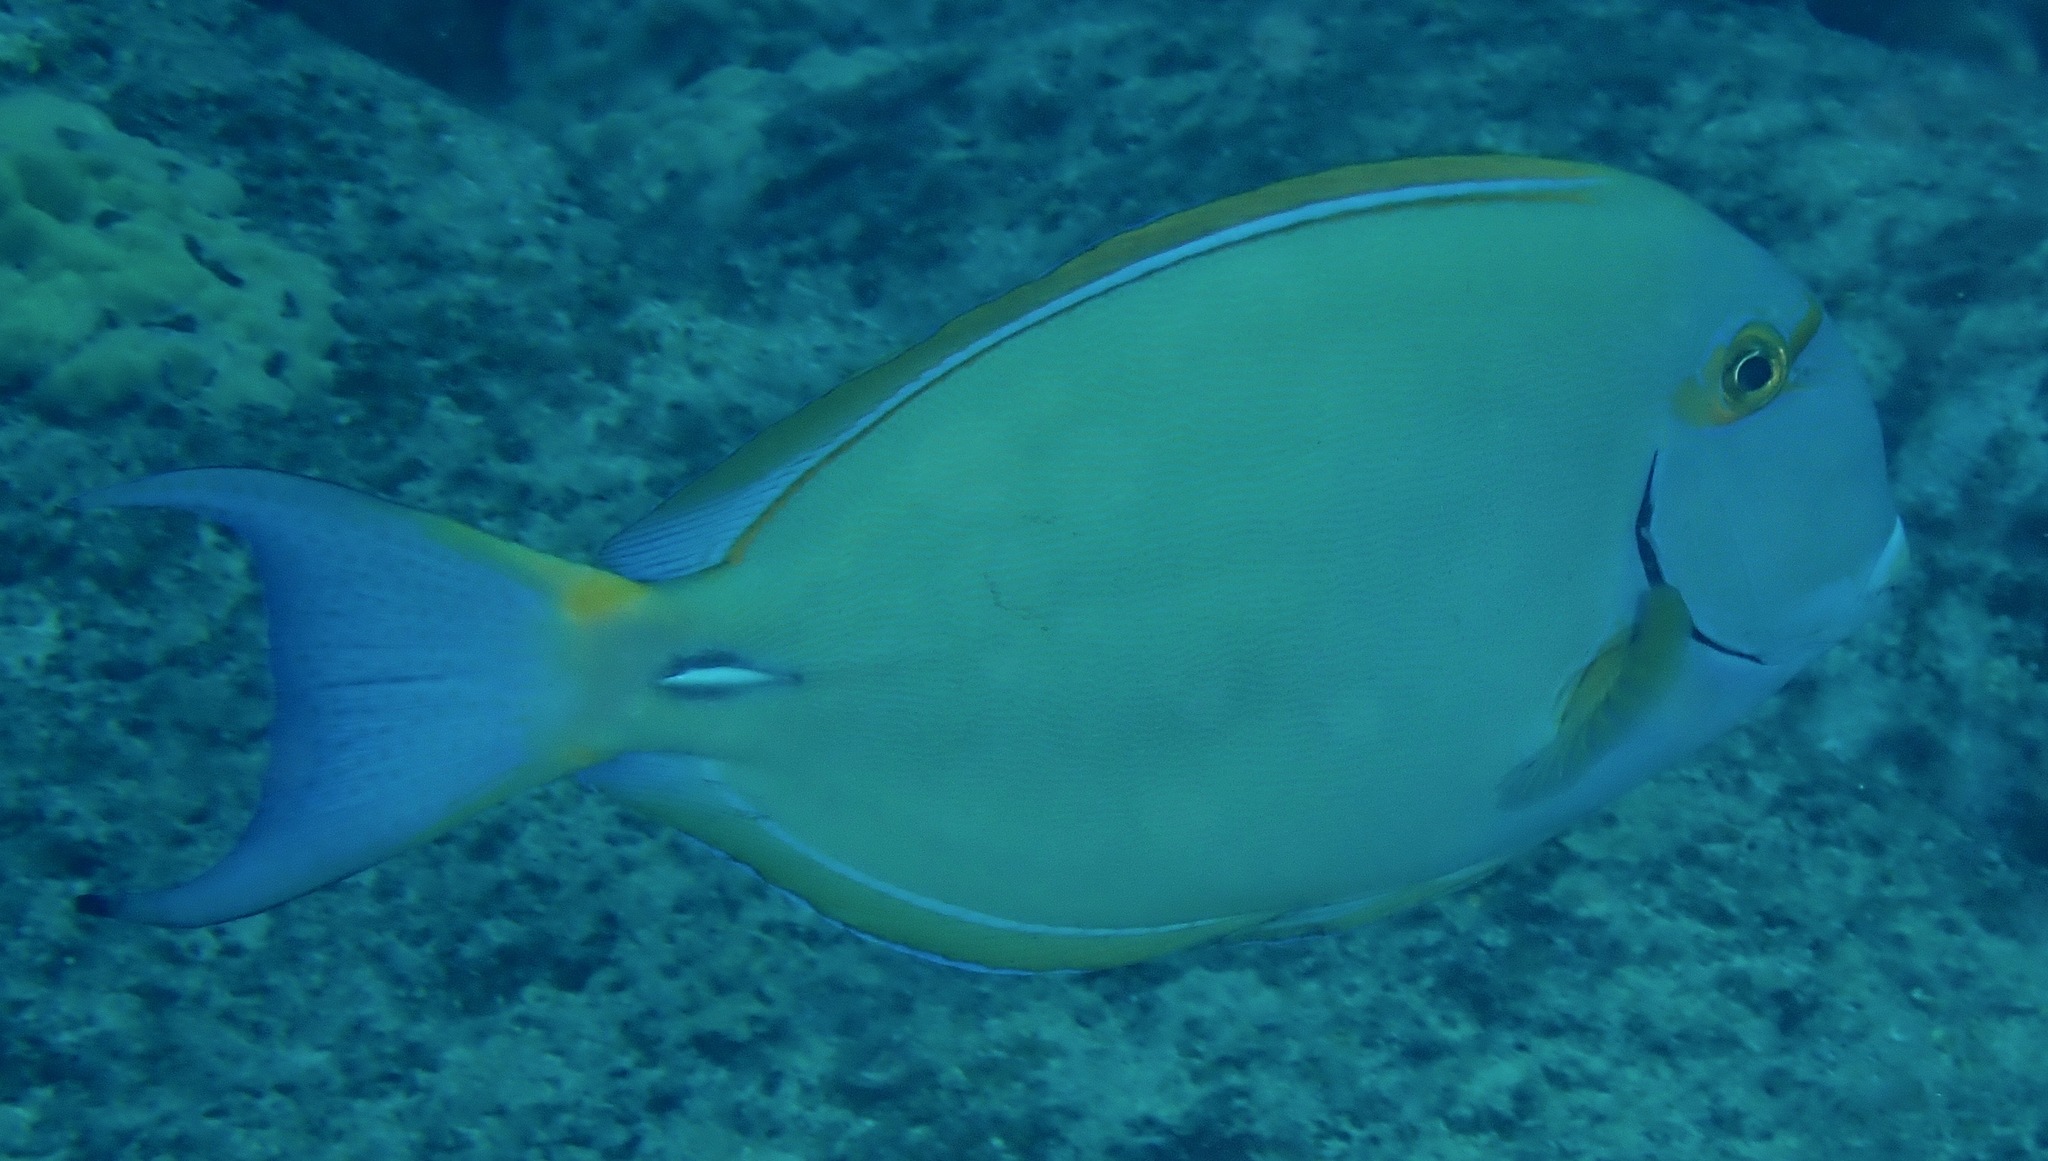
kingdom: Animalia
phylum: Chordata
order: Perciformes
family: Acanthuridae
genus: Acanthurus
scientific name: Acanthurus dussumieri
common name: Dussumier's surgeonfish
